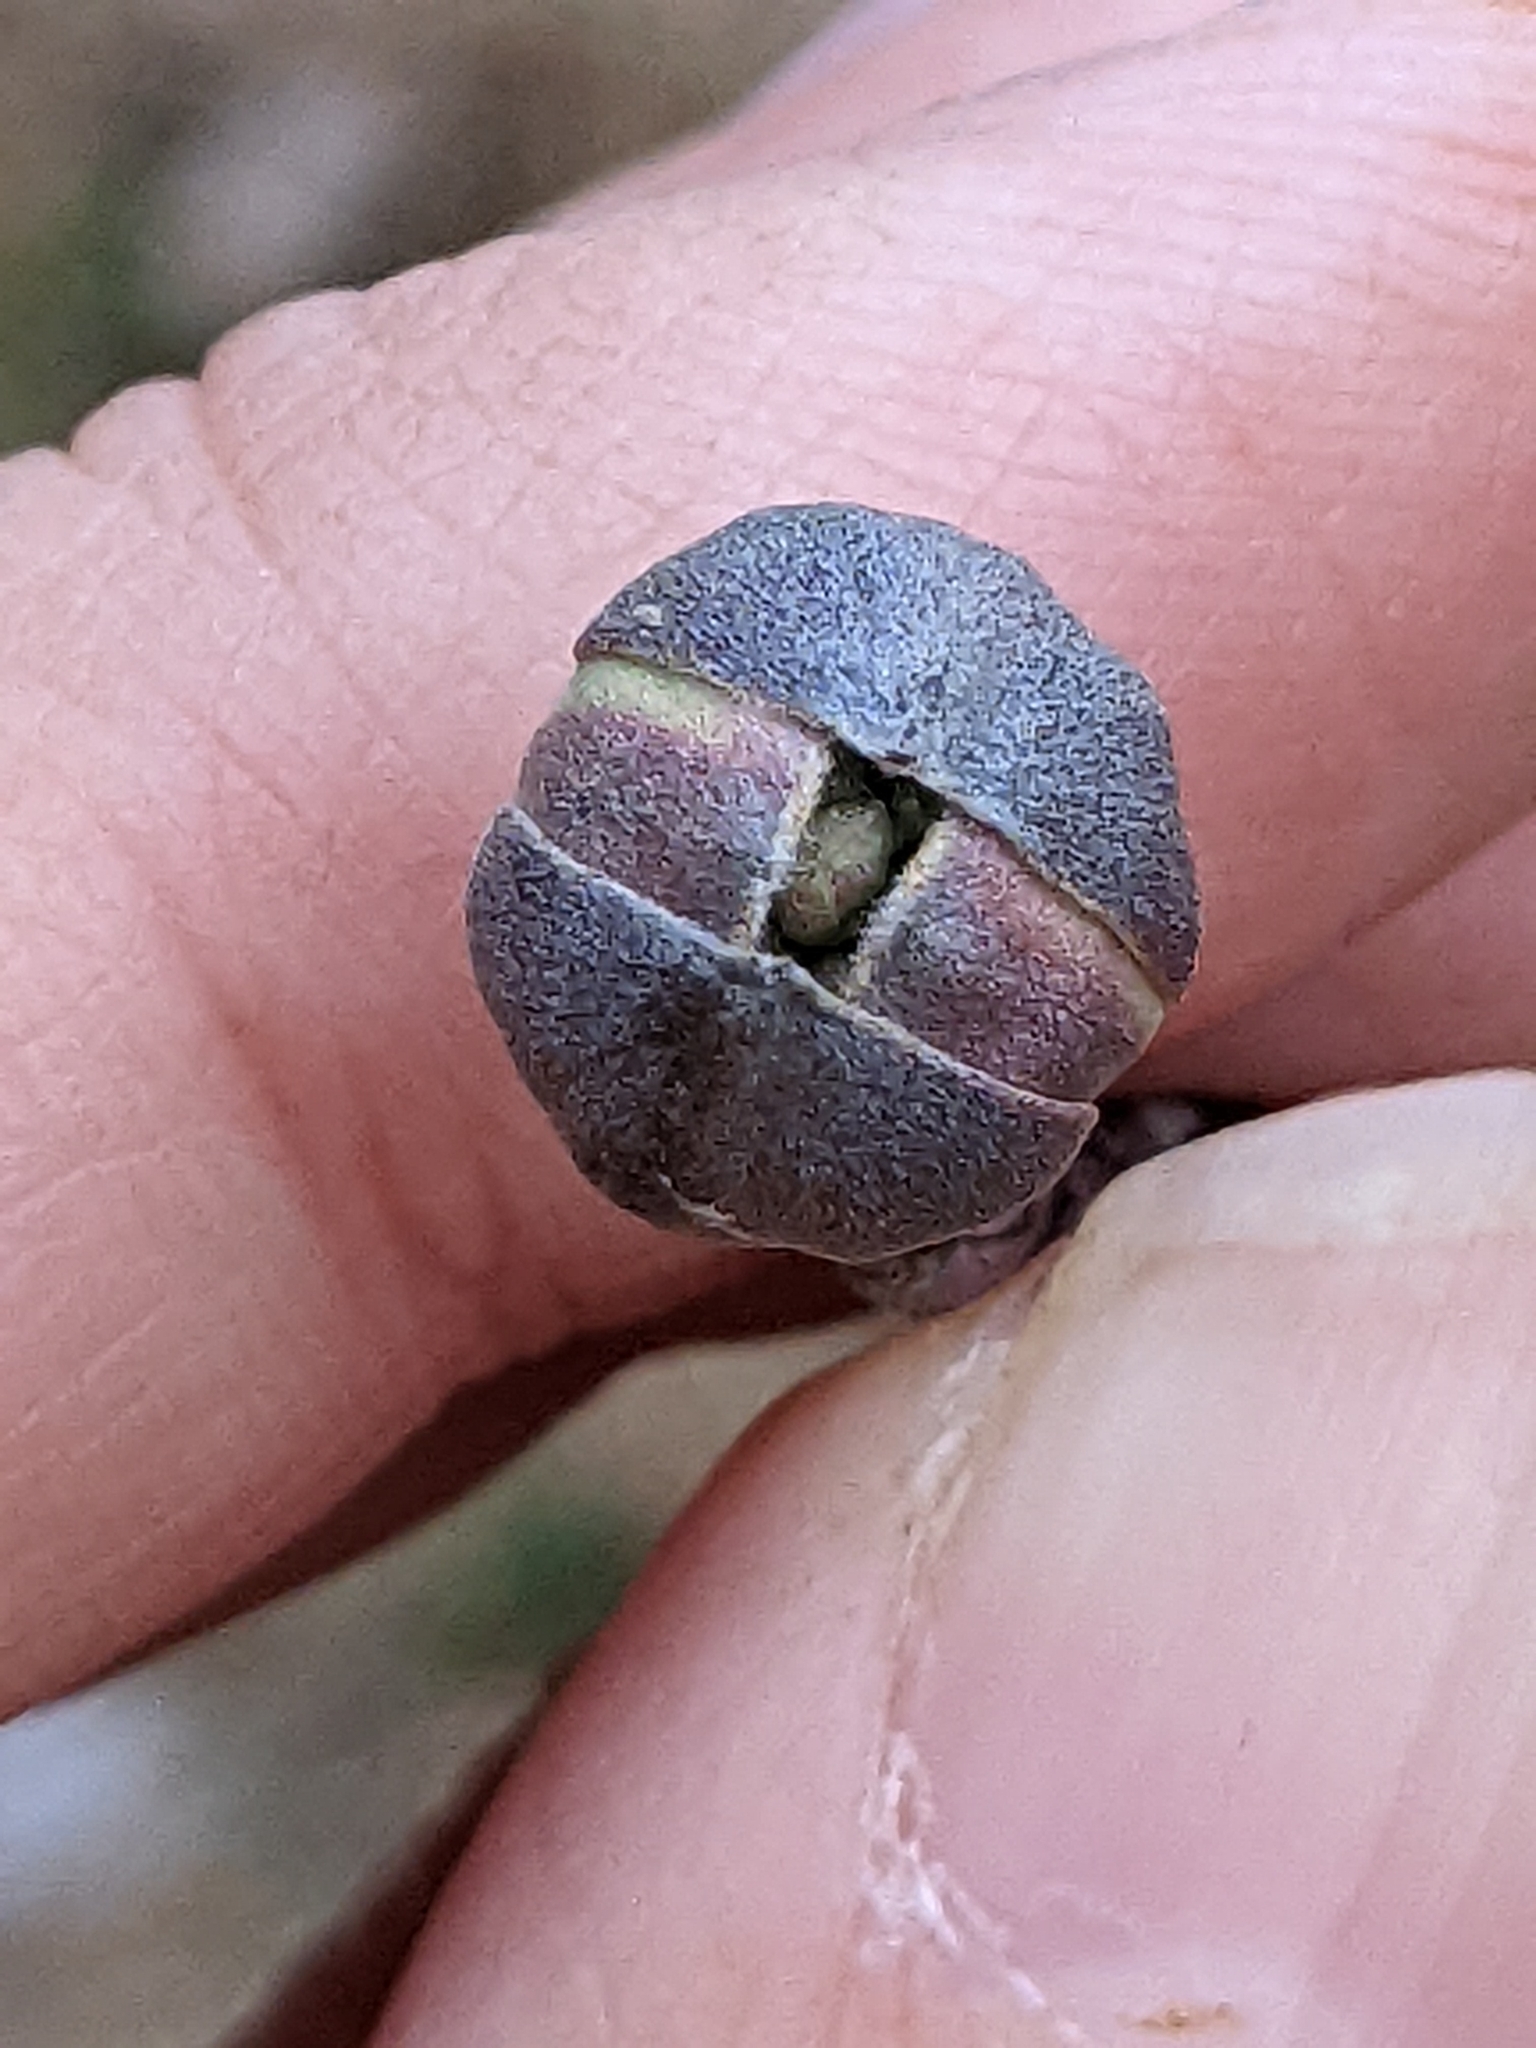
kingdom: Plantae
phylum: Tracheophyta
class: Magnoliopsida
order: Cornales
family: Cornaceae
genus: Cornus
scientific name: Cornus florida
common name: Flowering dogwood
